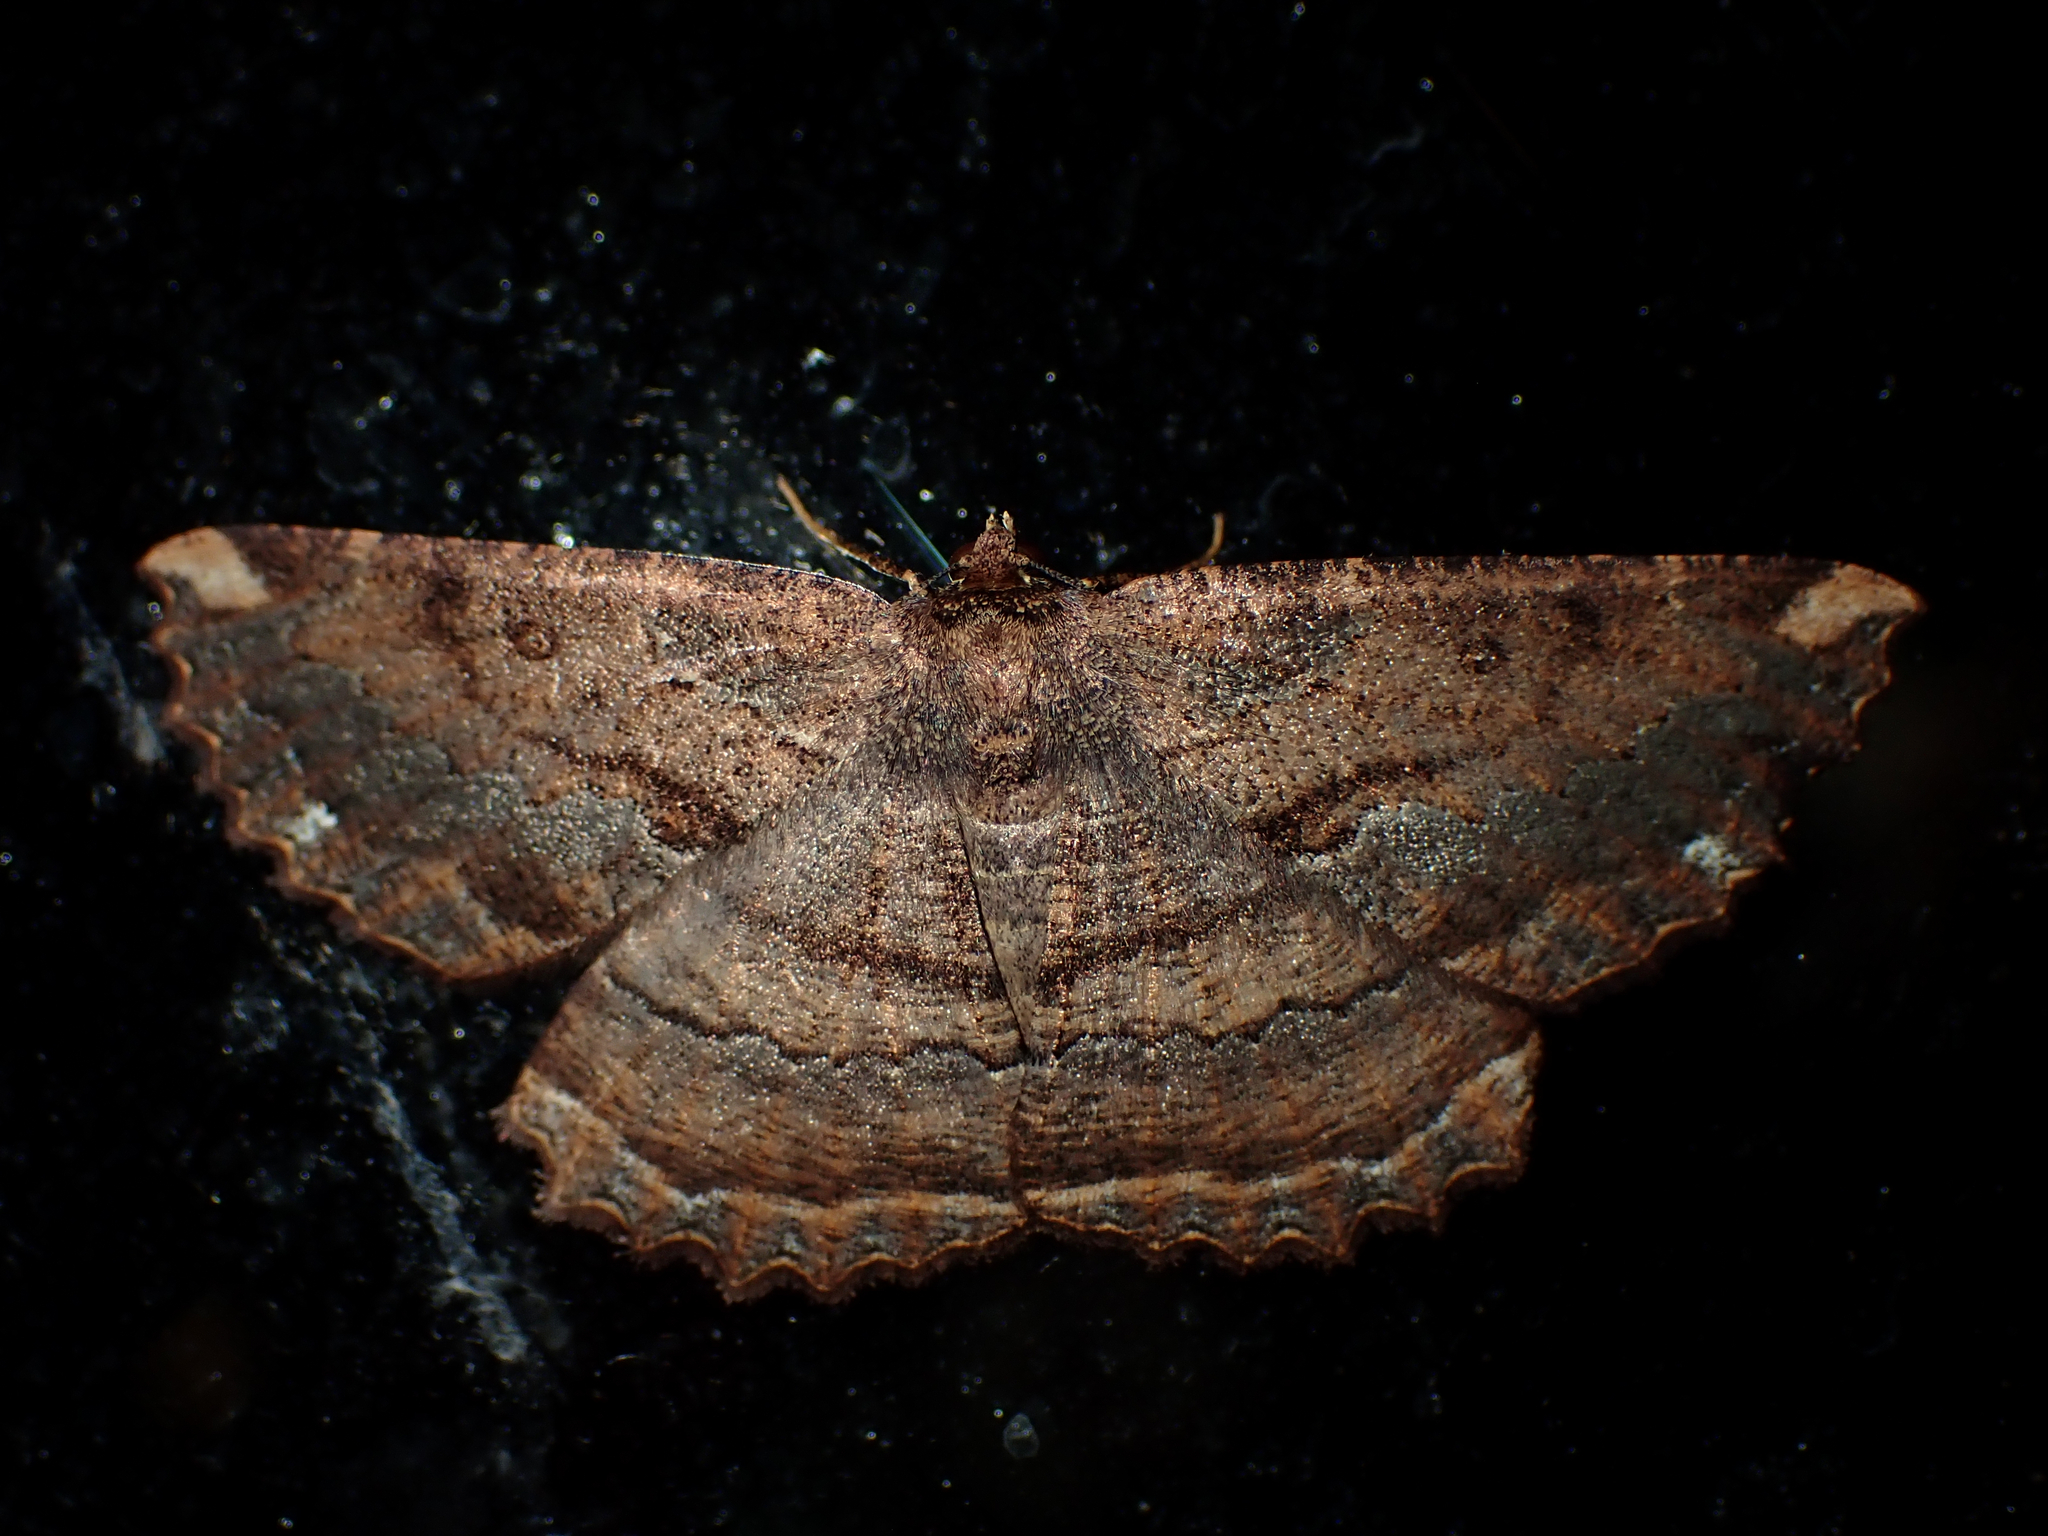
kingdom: Animalia
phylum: Arthropoda
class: Insecta
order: Lepidoptera
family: Geometridae
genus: Gellonia
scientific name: Gellonia dejectaria
